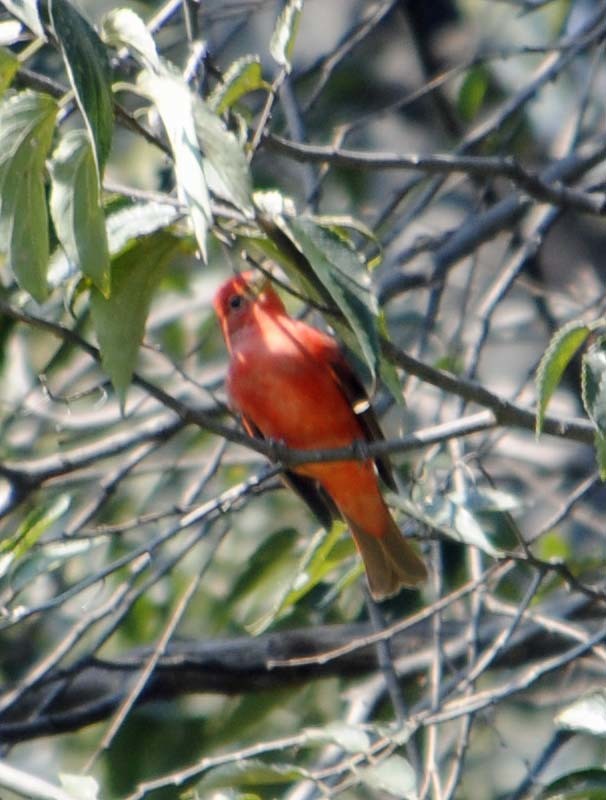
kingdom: Animalia
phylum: Chordata
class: Aves
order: Passeriformes
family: Cardinalidae
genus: Piranga
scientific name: Piranga rubra
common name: Summer tanager
